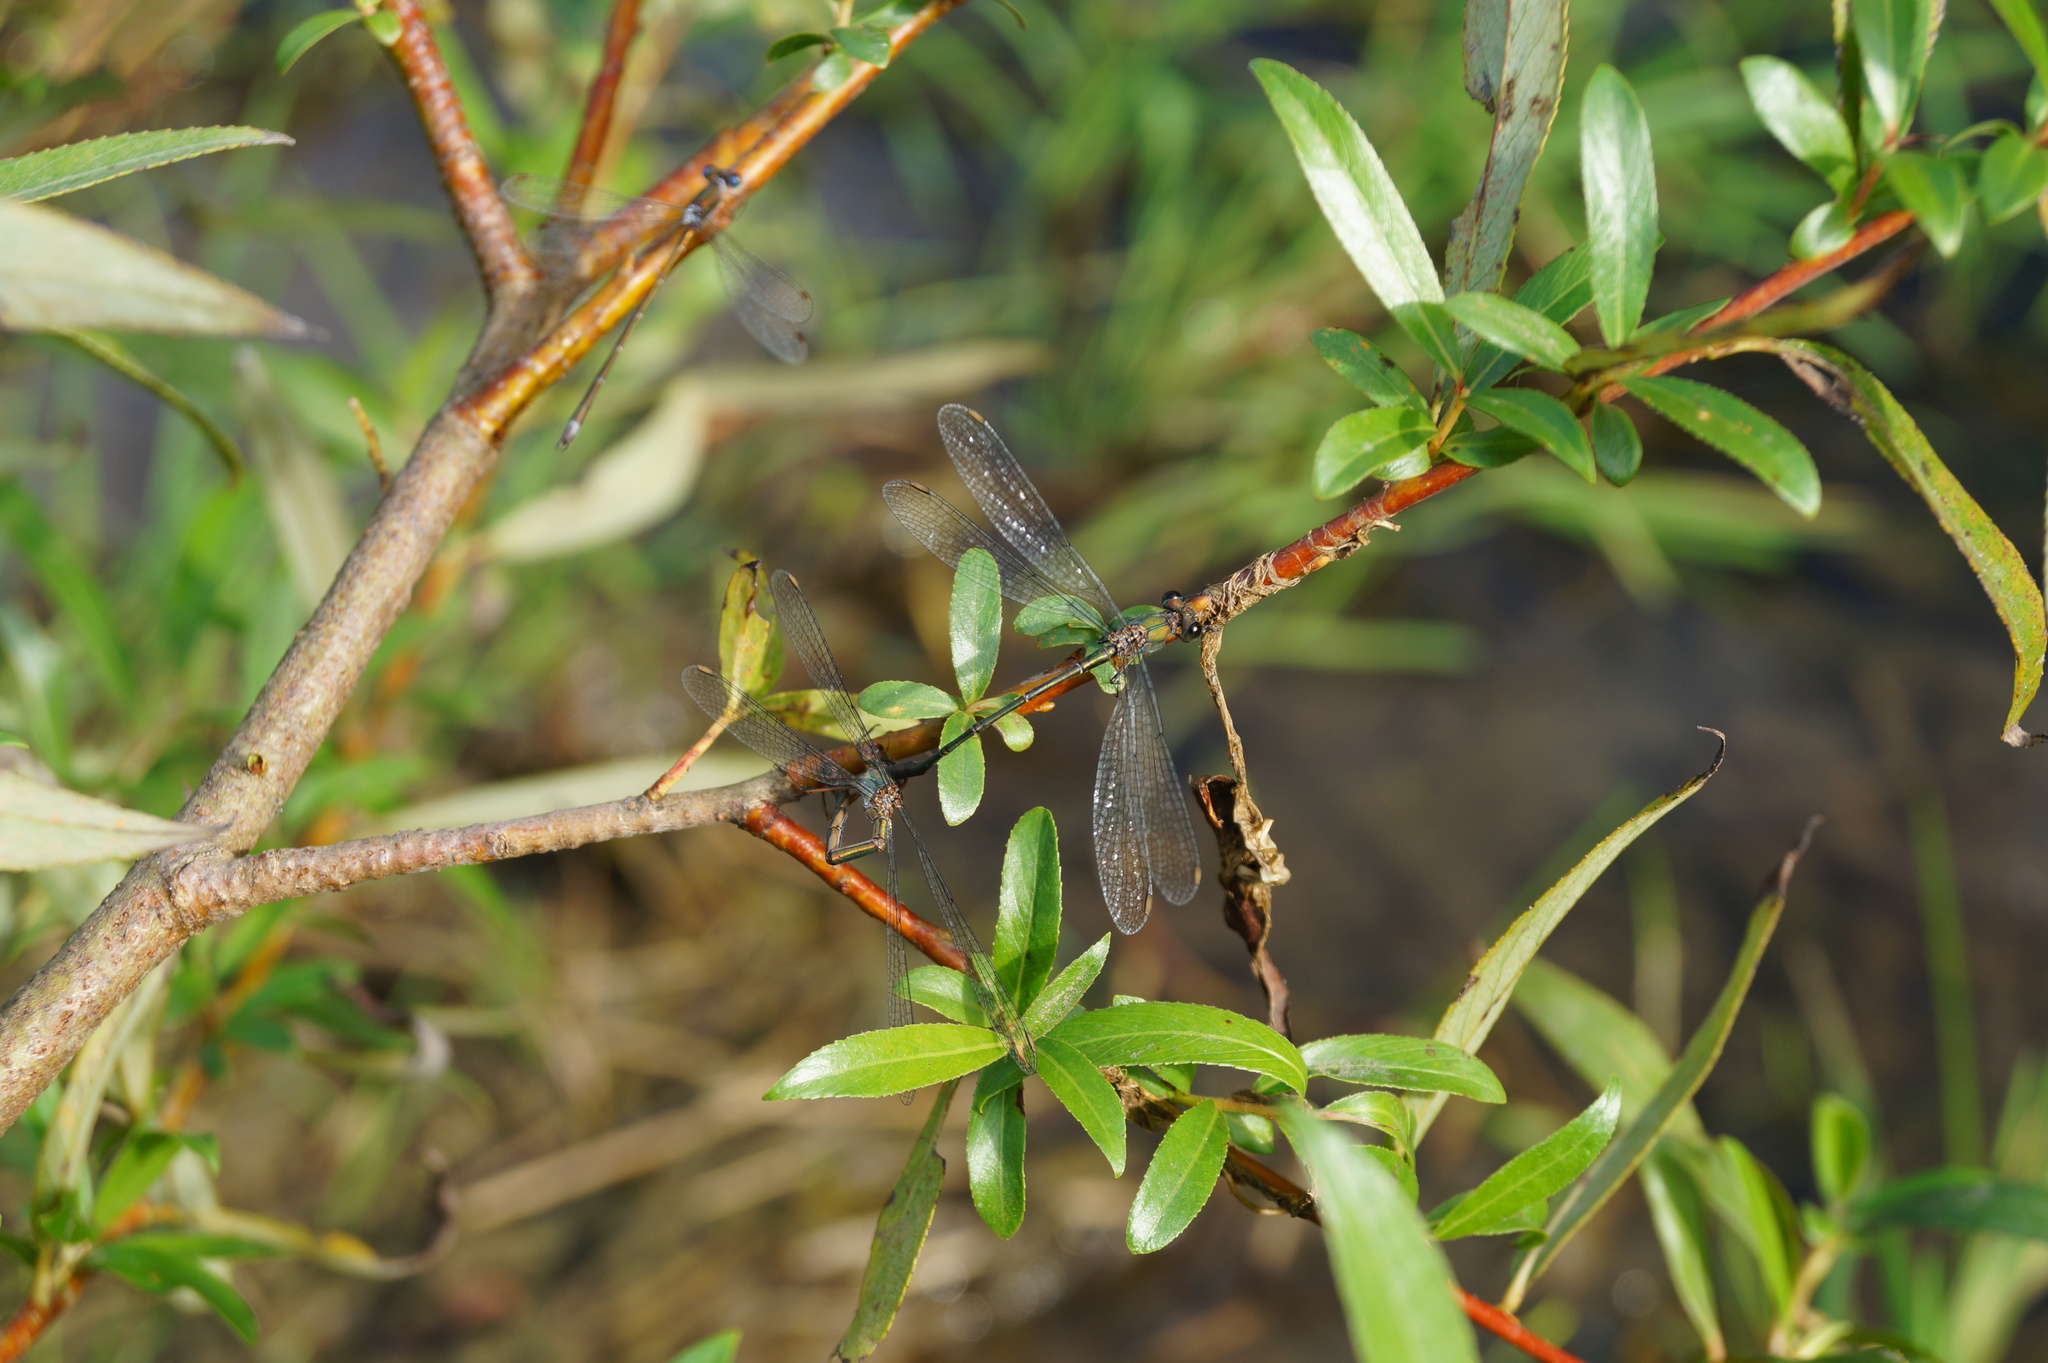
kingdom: Animalia
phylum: Arthropoda
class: Insecta
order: Odonata
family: Lestidae
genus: Chalcolestes
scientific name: Chalcolestes viridis
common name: Green emerald damselfly
